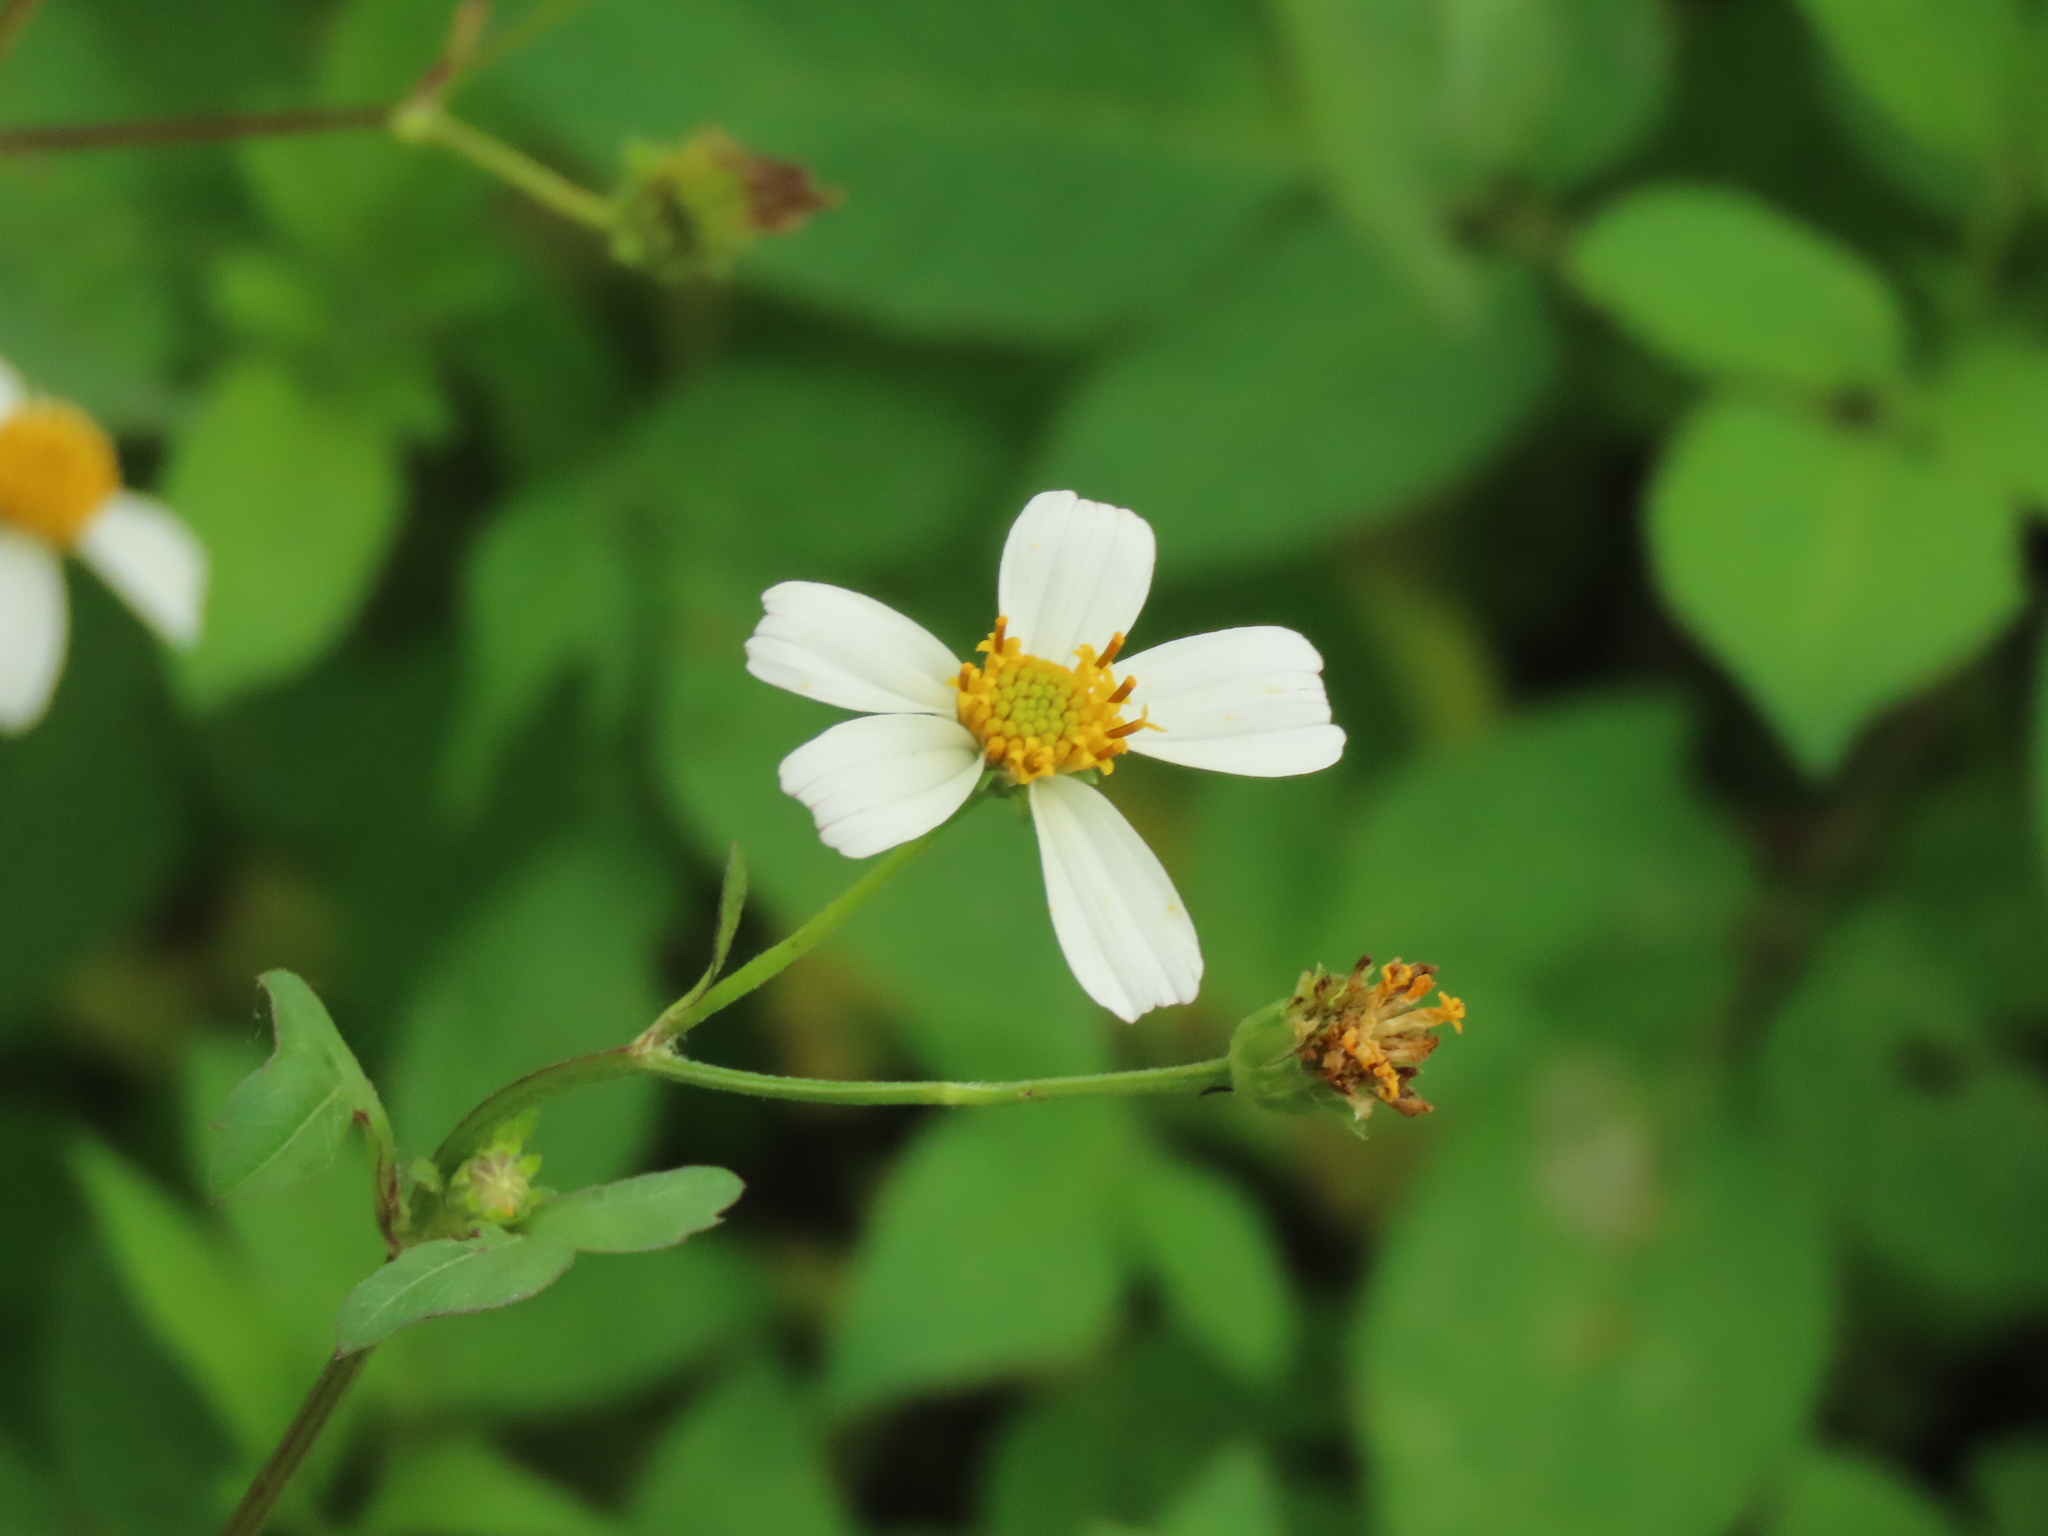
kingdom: Plantae
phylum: Tracheophyta
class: Magnoliopsida
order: Asterales
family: Asteraceae
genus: Bidens
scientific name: Bidens alba
